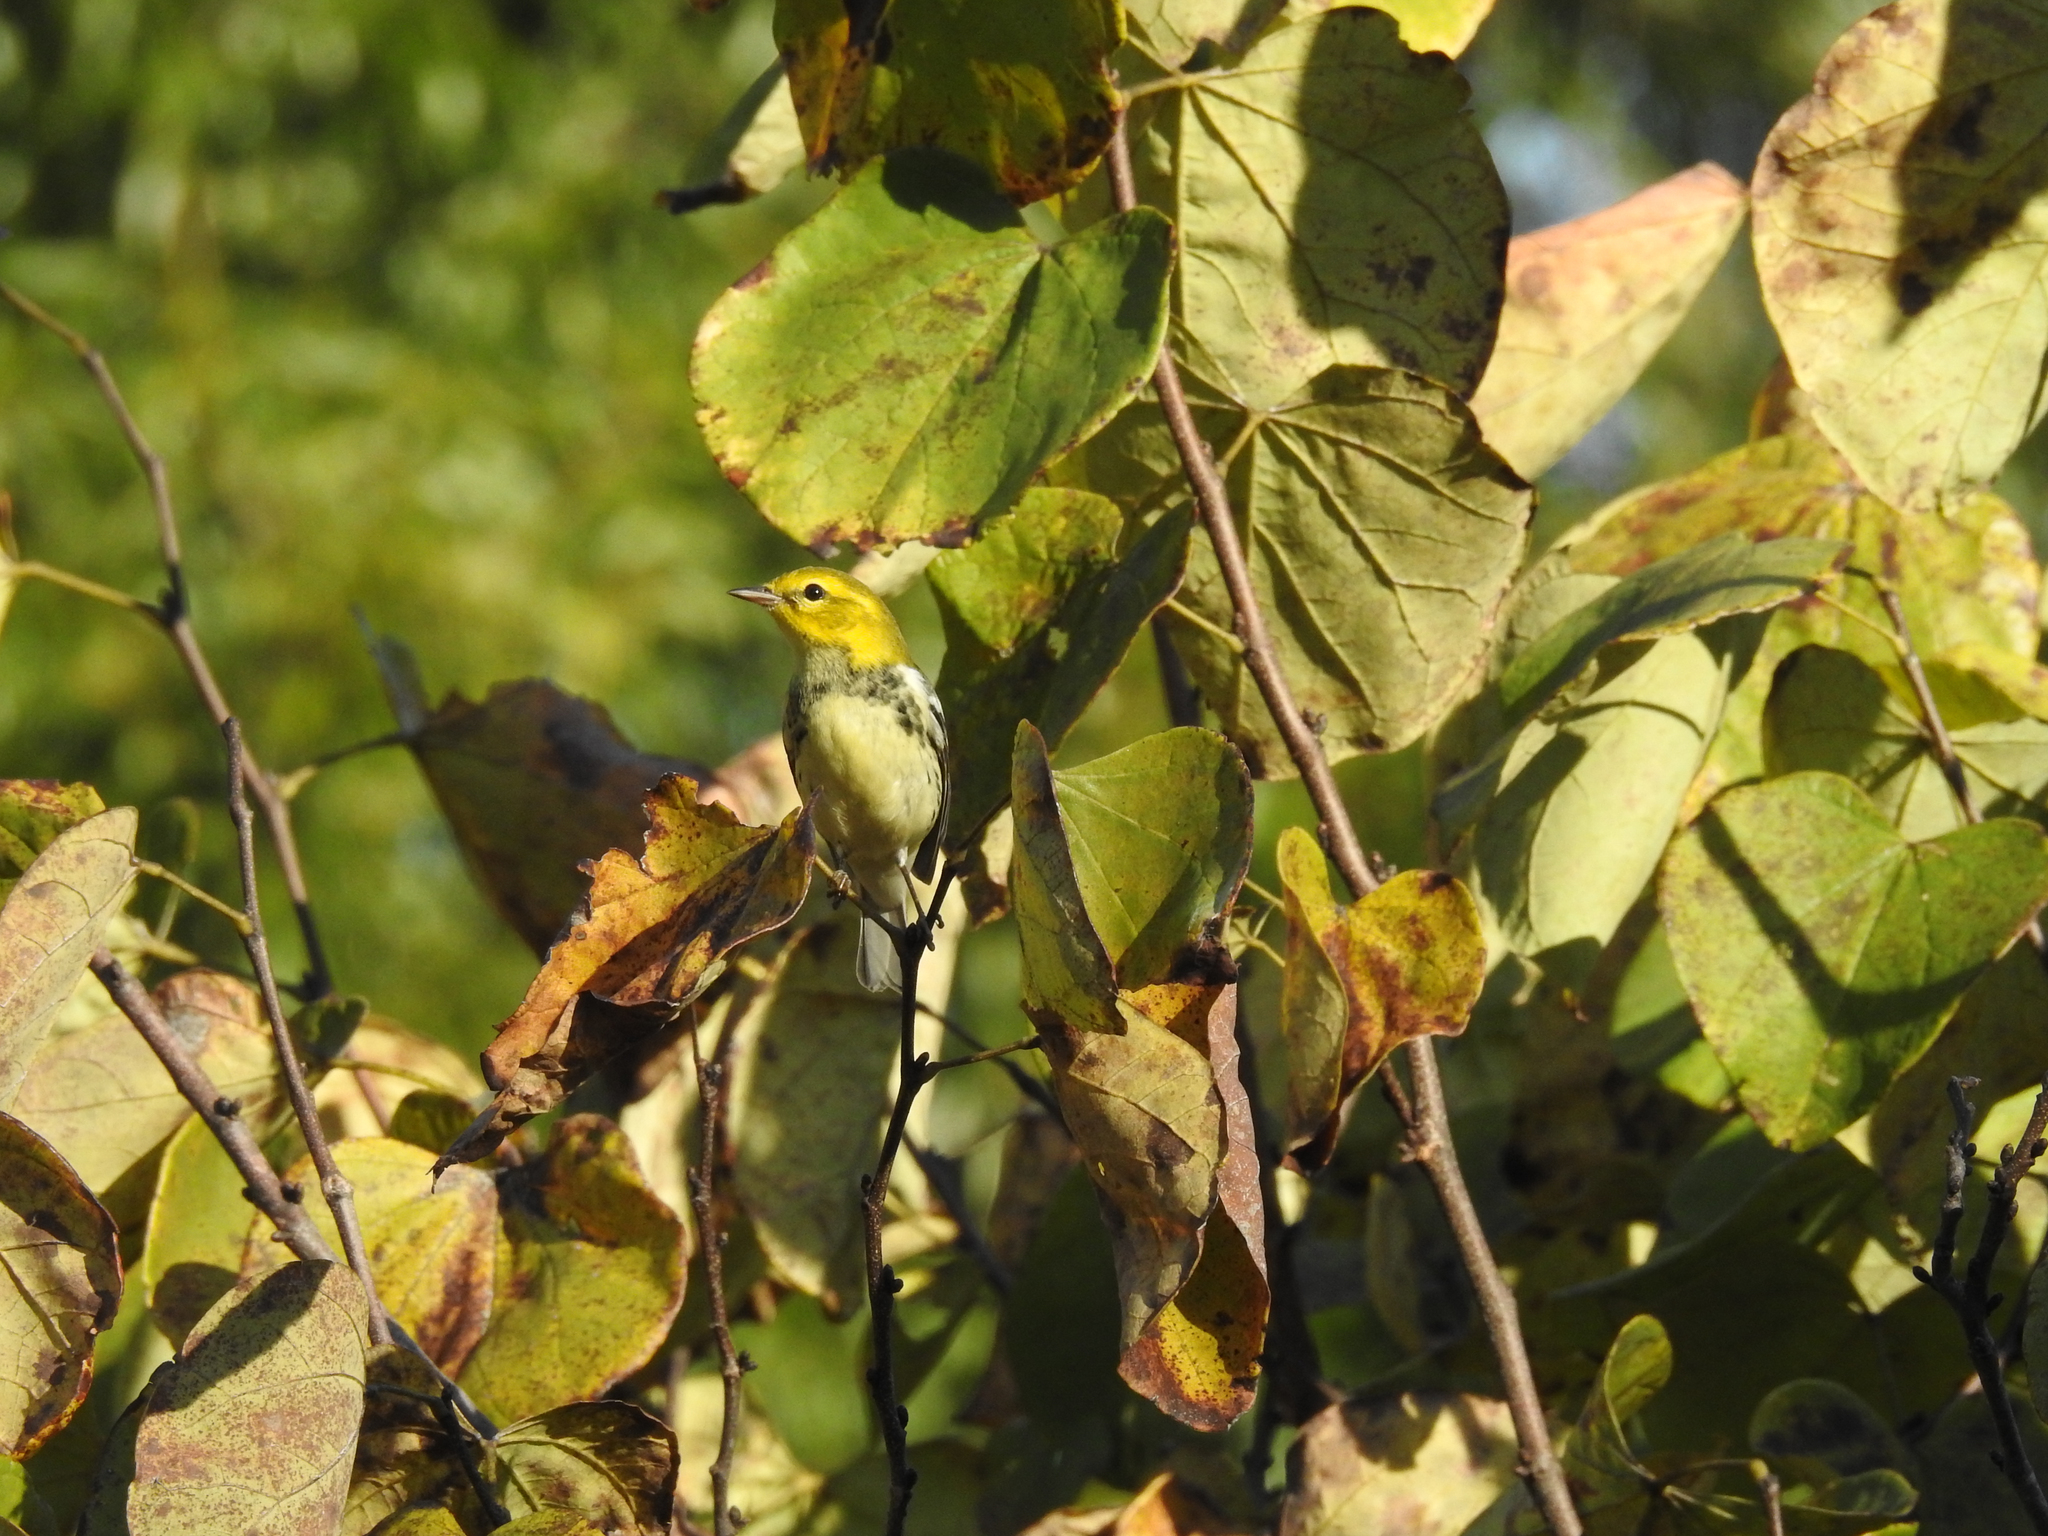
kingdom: Animalia
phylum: Chordata
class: Aves
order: Passeriformes
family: Parulidae
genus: Setophaga
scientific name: Setophaga virens
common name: Black-throated green warbler
